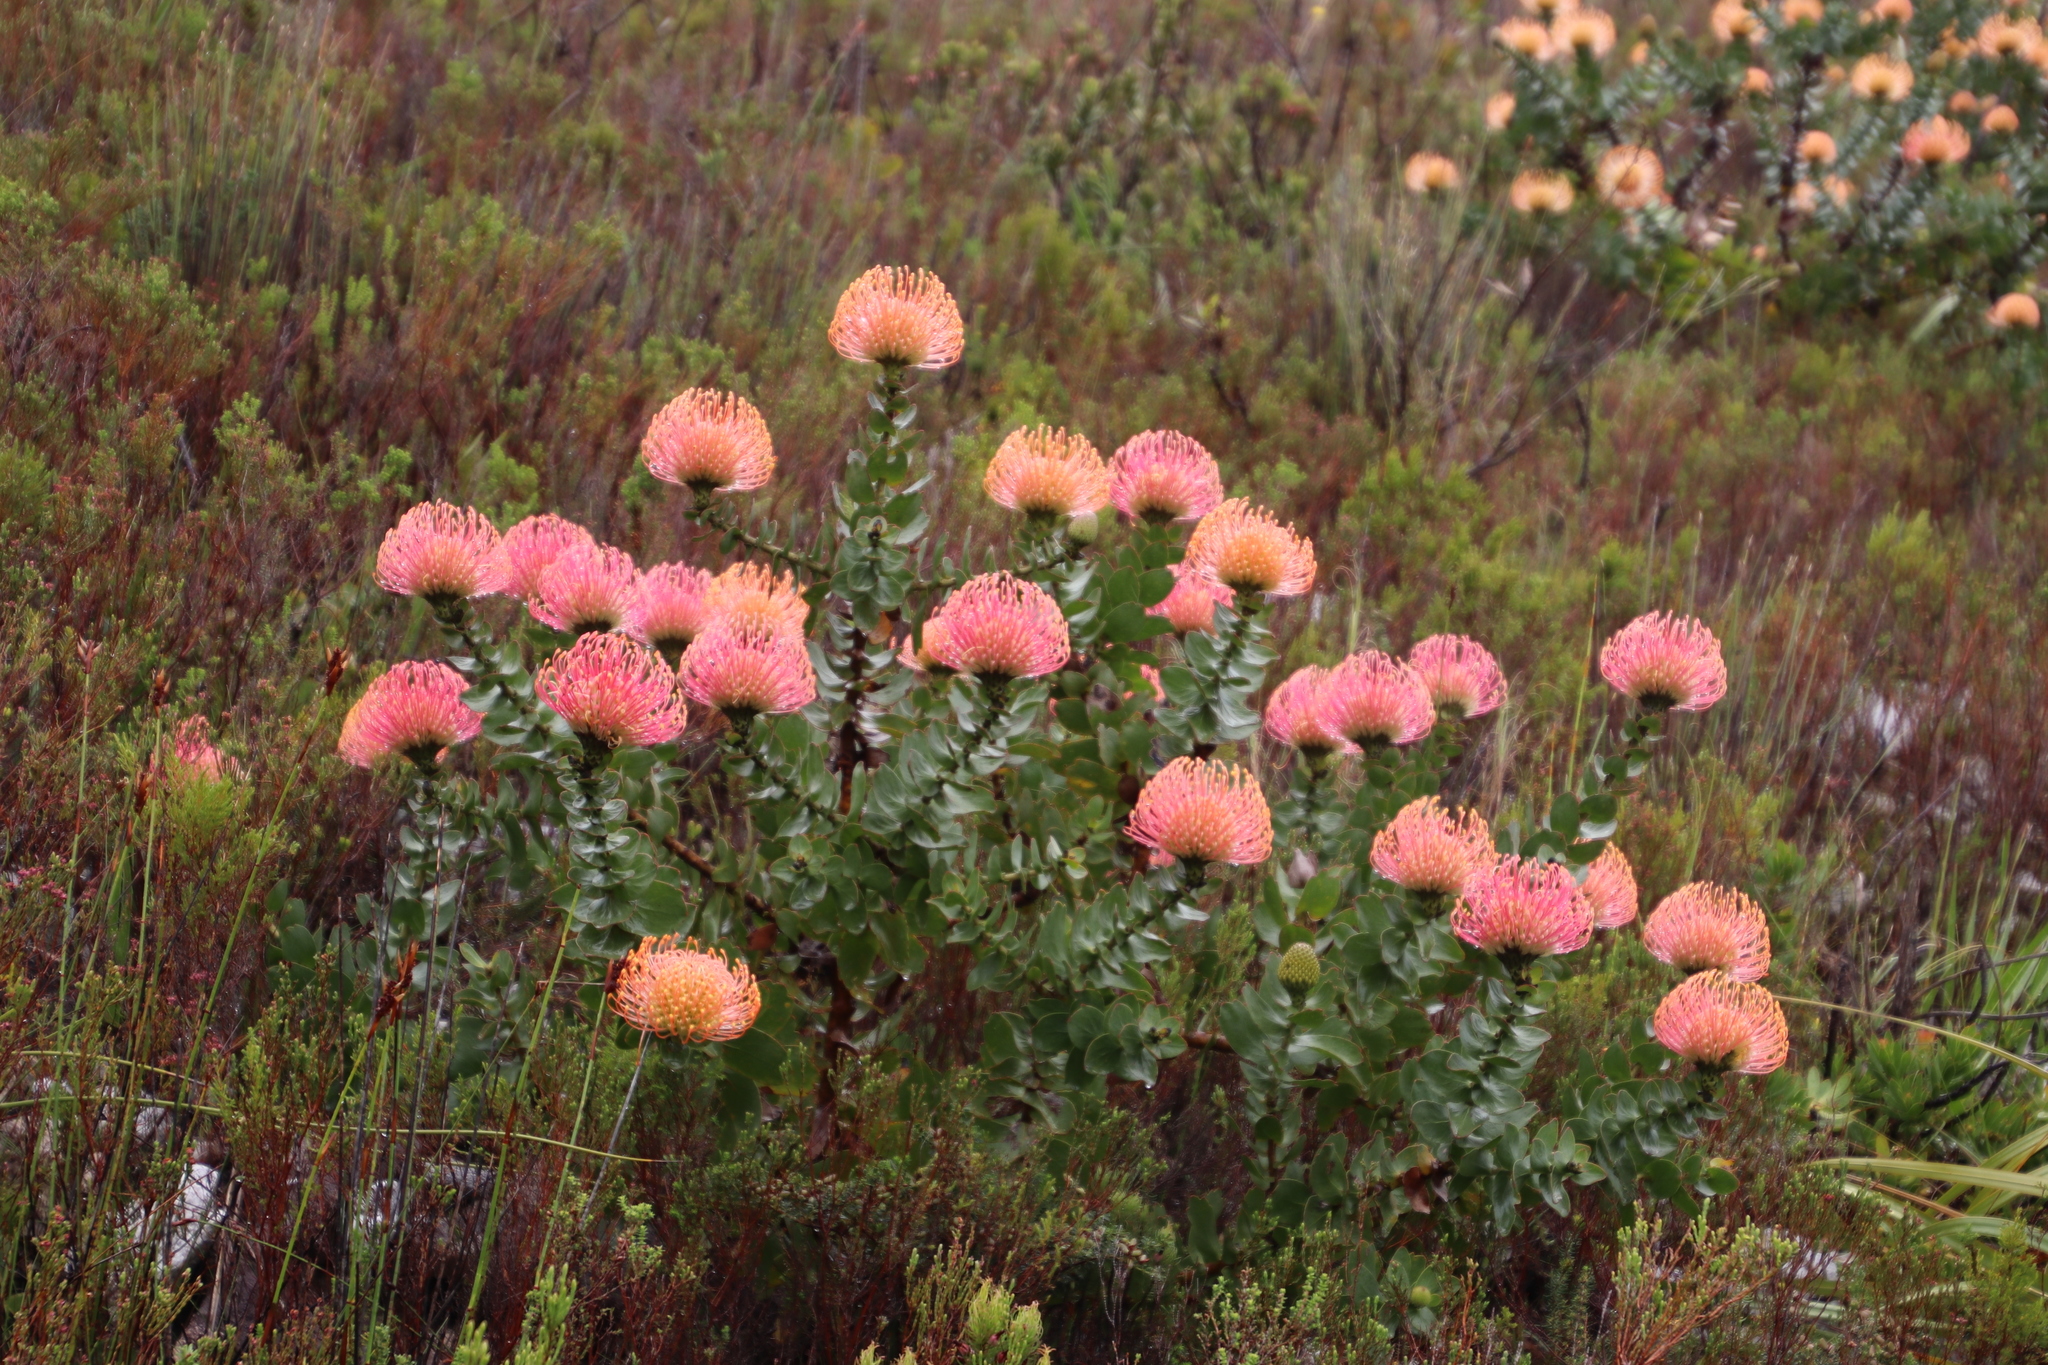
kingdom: Plantae
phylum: Tracheophyta
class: Magnoliopsida
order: Proteales
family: Proteaceae
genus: Leucospermum
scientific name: Leucospermum cordifolium
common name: Red pincushion-protea
